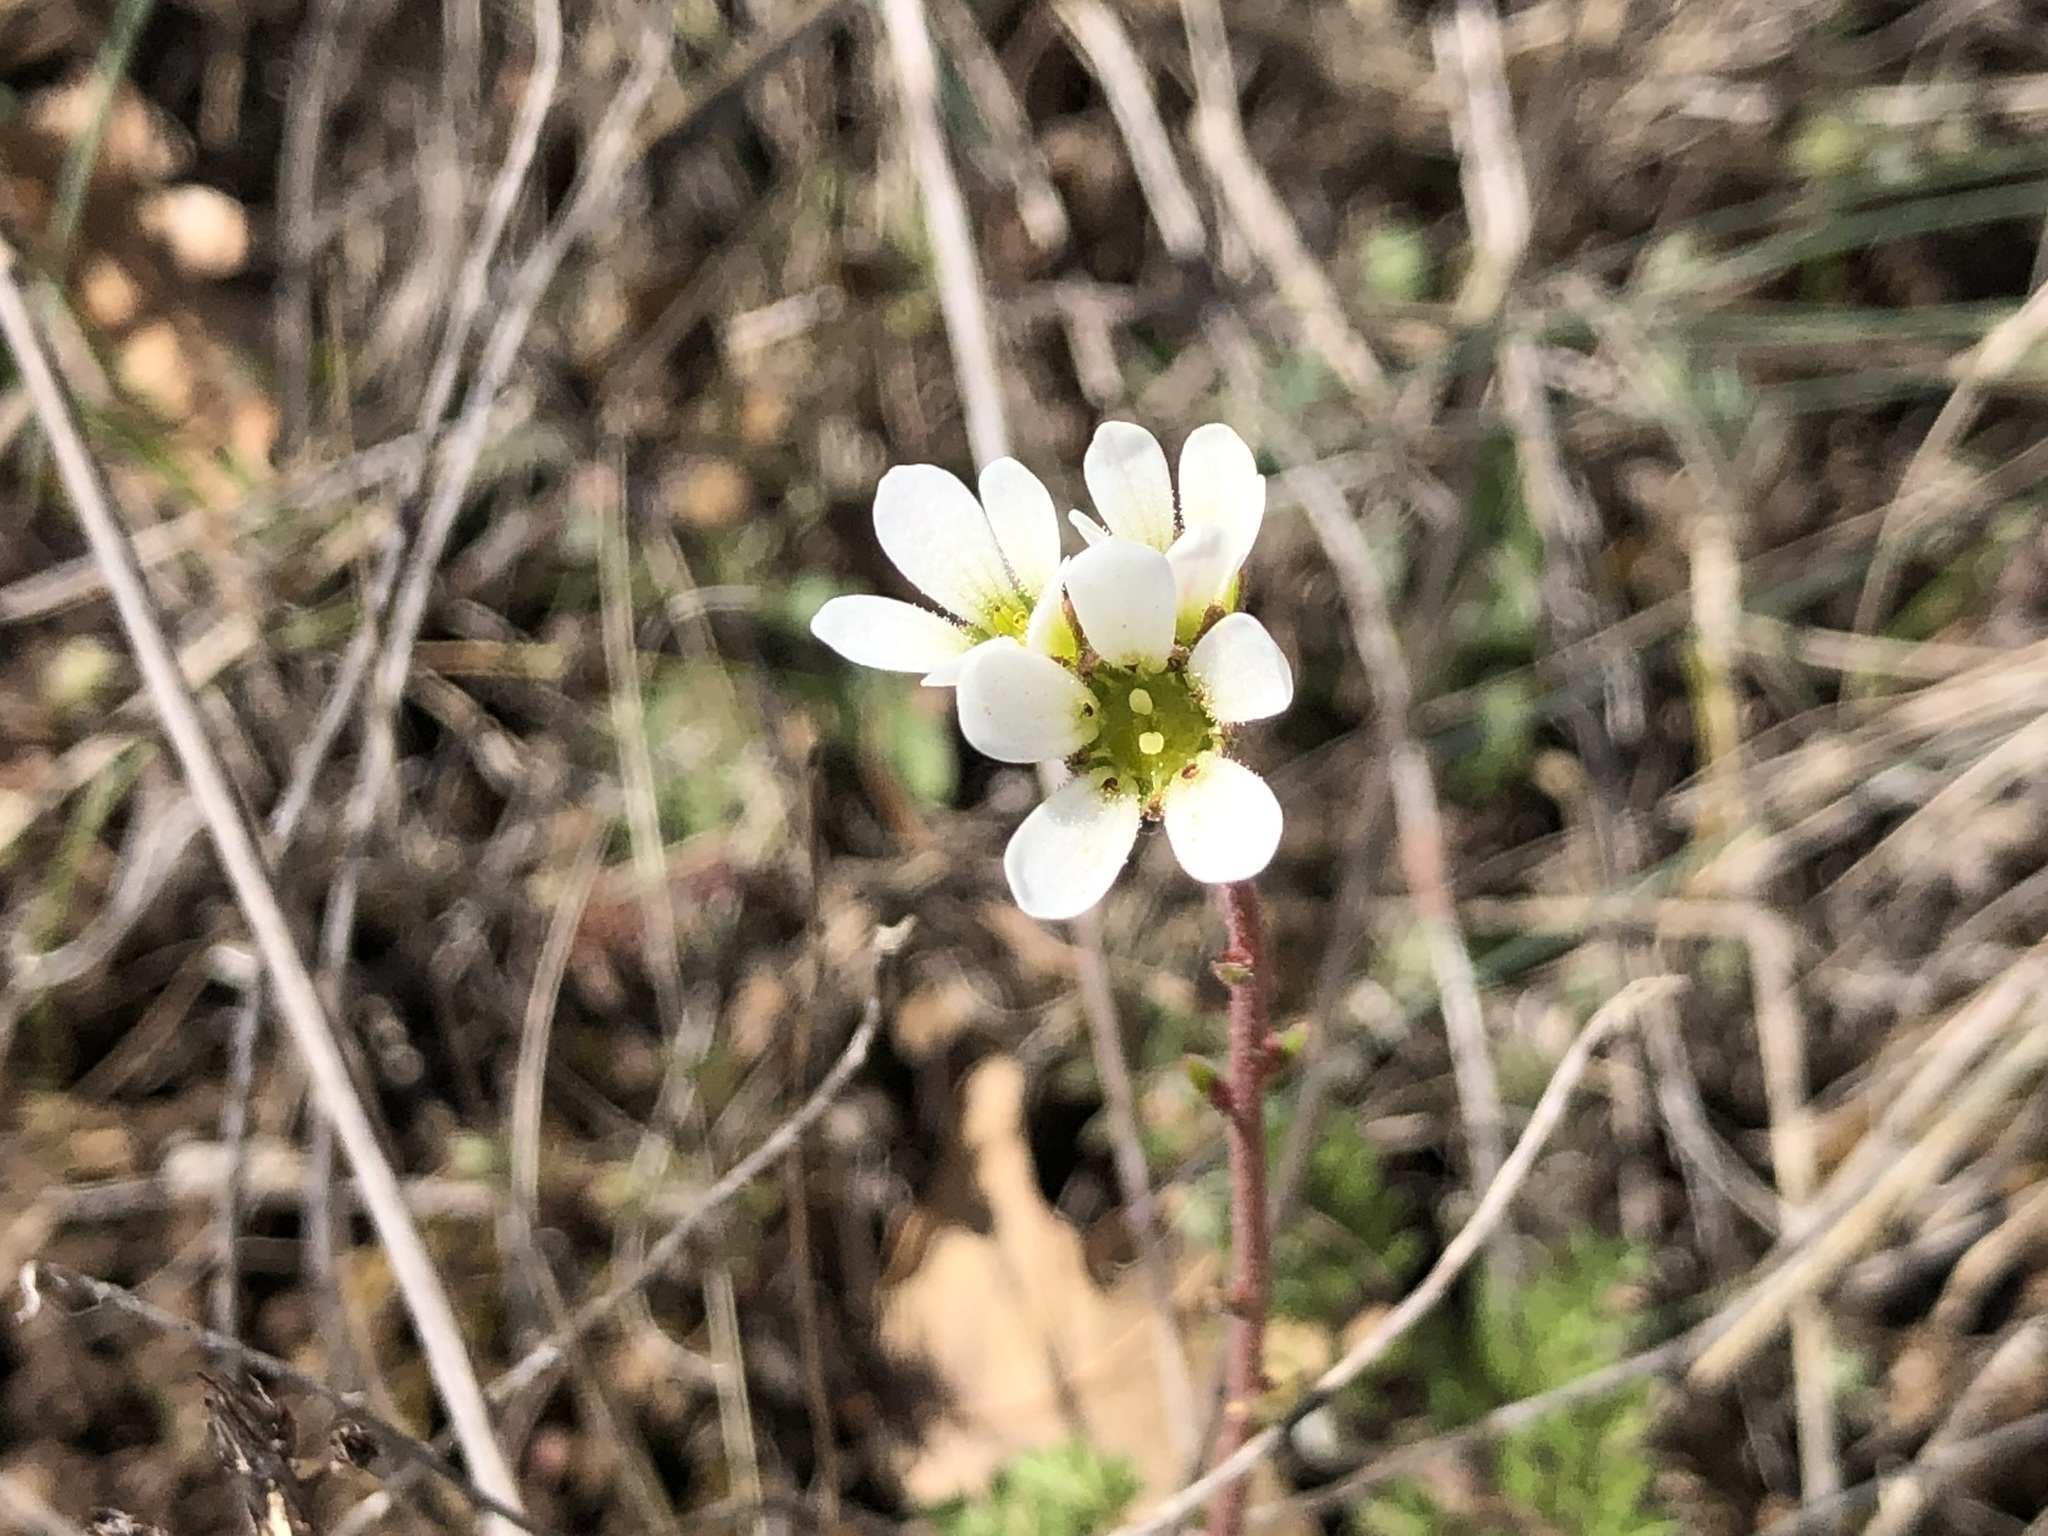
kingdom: Plantae
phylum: Tracheophyta
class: Magnoliopsida
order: Saxifragales
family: Saxifragaceae
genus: Saxifraga
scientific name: Saxifraga bulbifera
